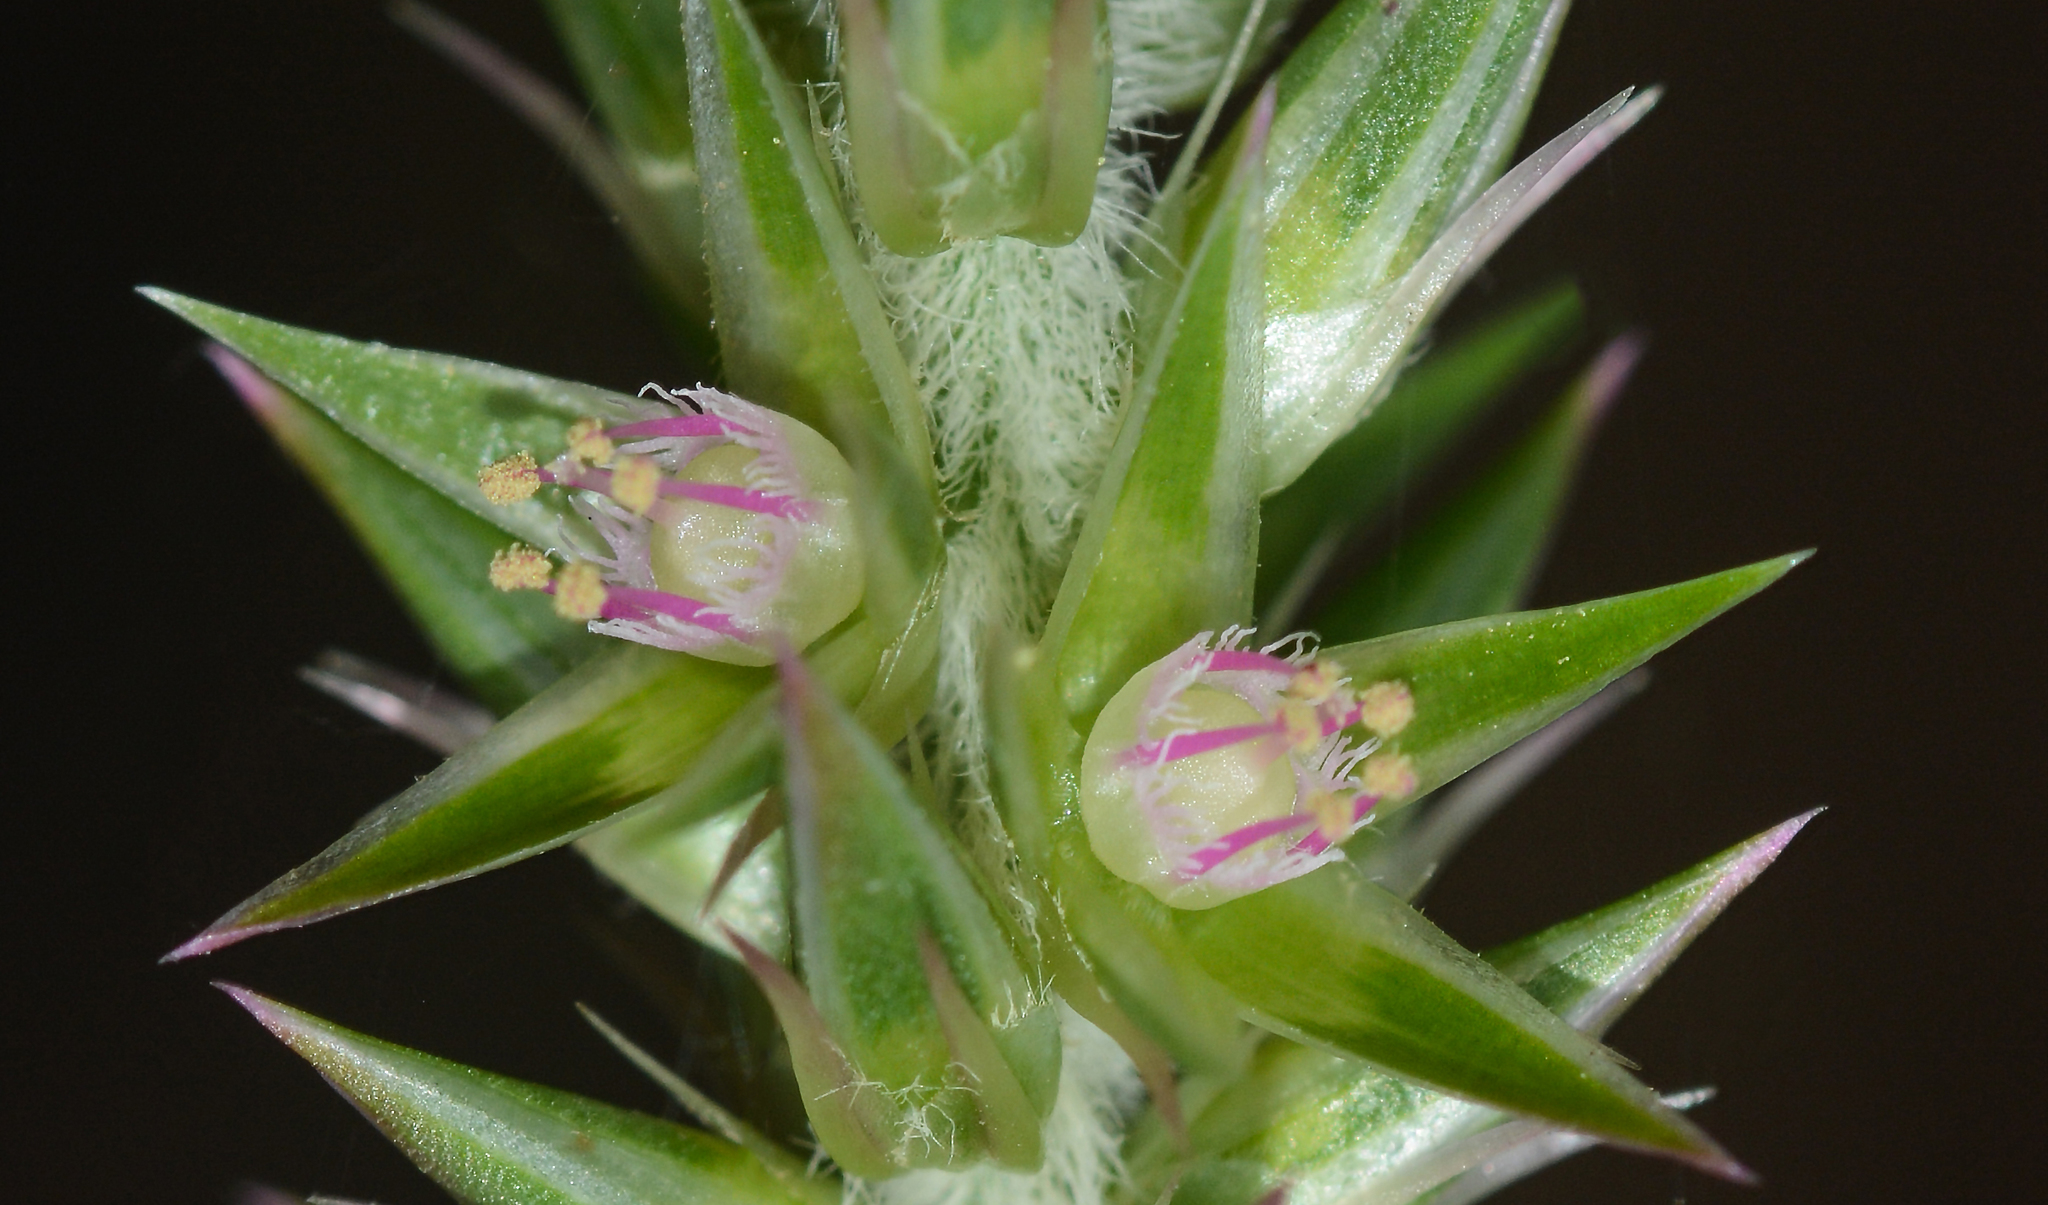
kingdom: Plantae
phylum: Tracheophyta
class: Magnoliopsida
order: Caryophyllales
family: Amaranthaceae
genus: Achyranthes
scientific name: Achyranthes aspera
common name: Devil's horsewhip
